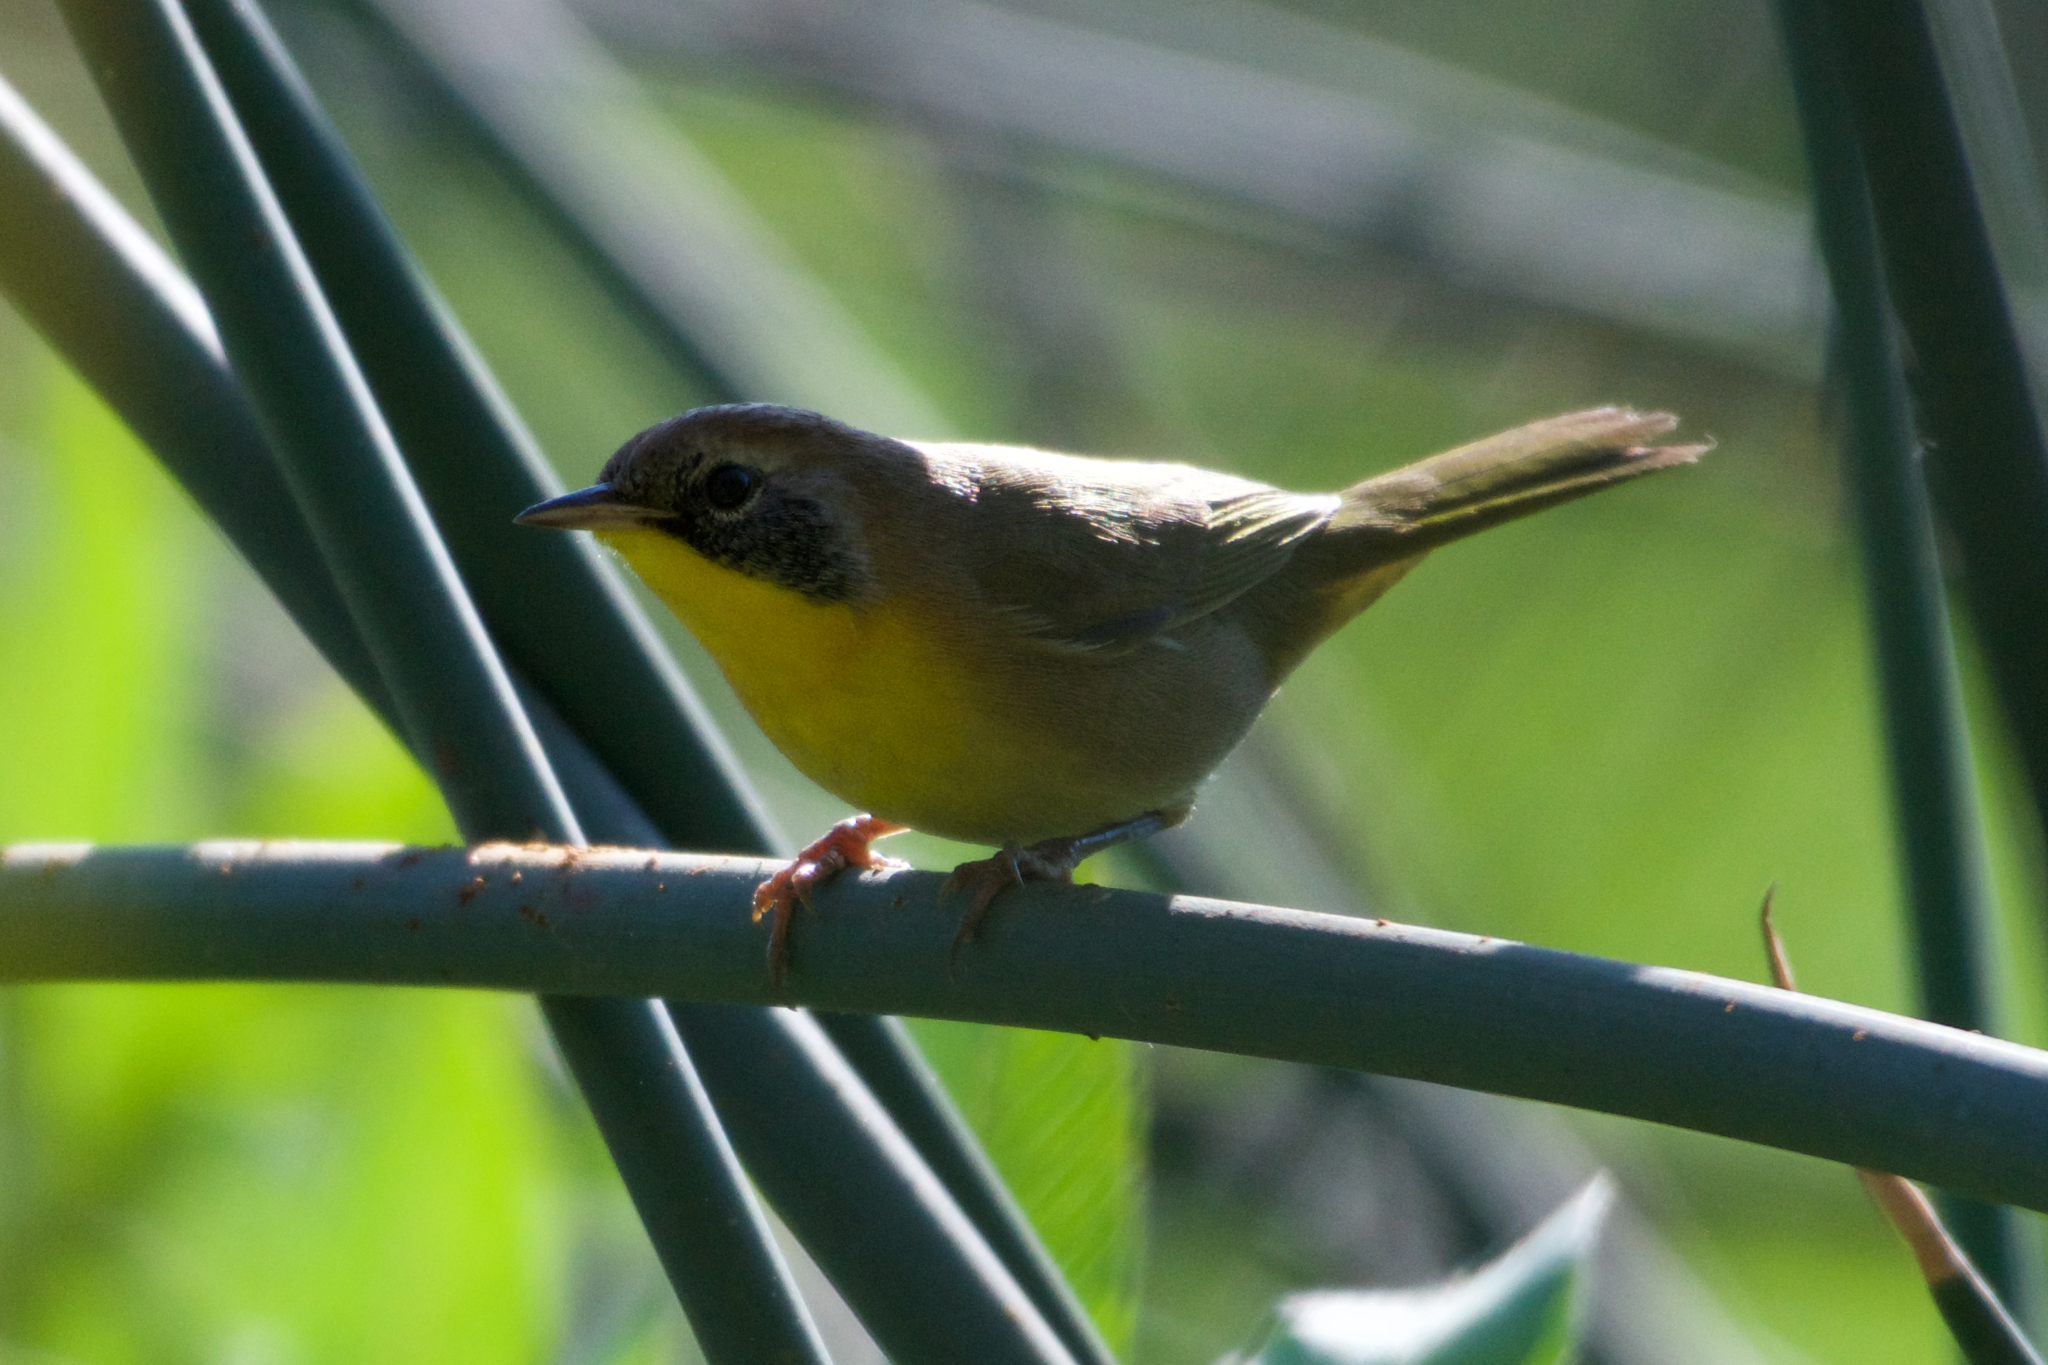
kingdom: Animalia
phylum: Chordata
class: Aves
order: Passeriformes
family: Parulidae
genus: Geothlypis
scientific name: Geothlypis trichas
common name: Common yellowthroat
